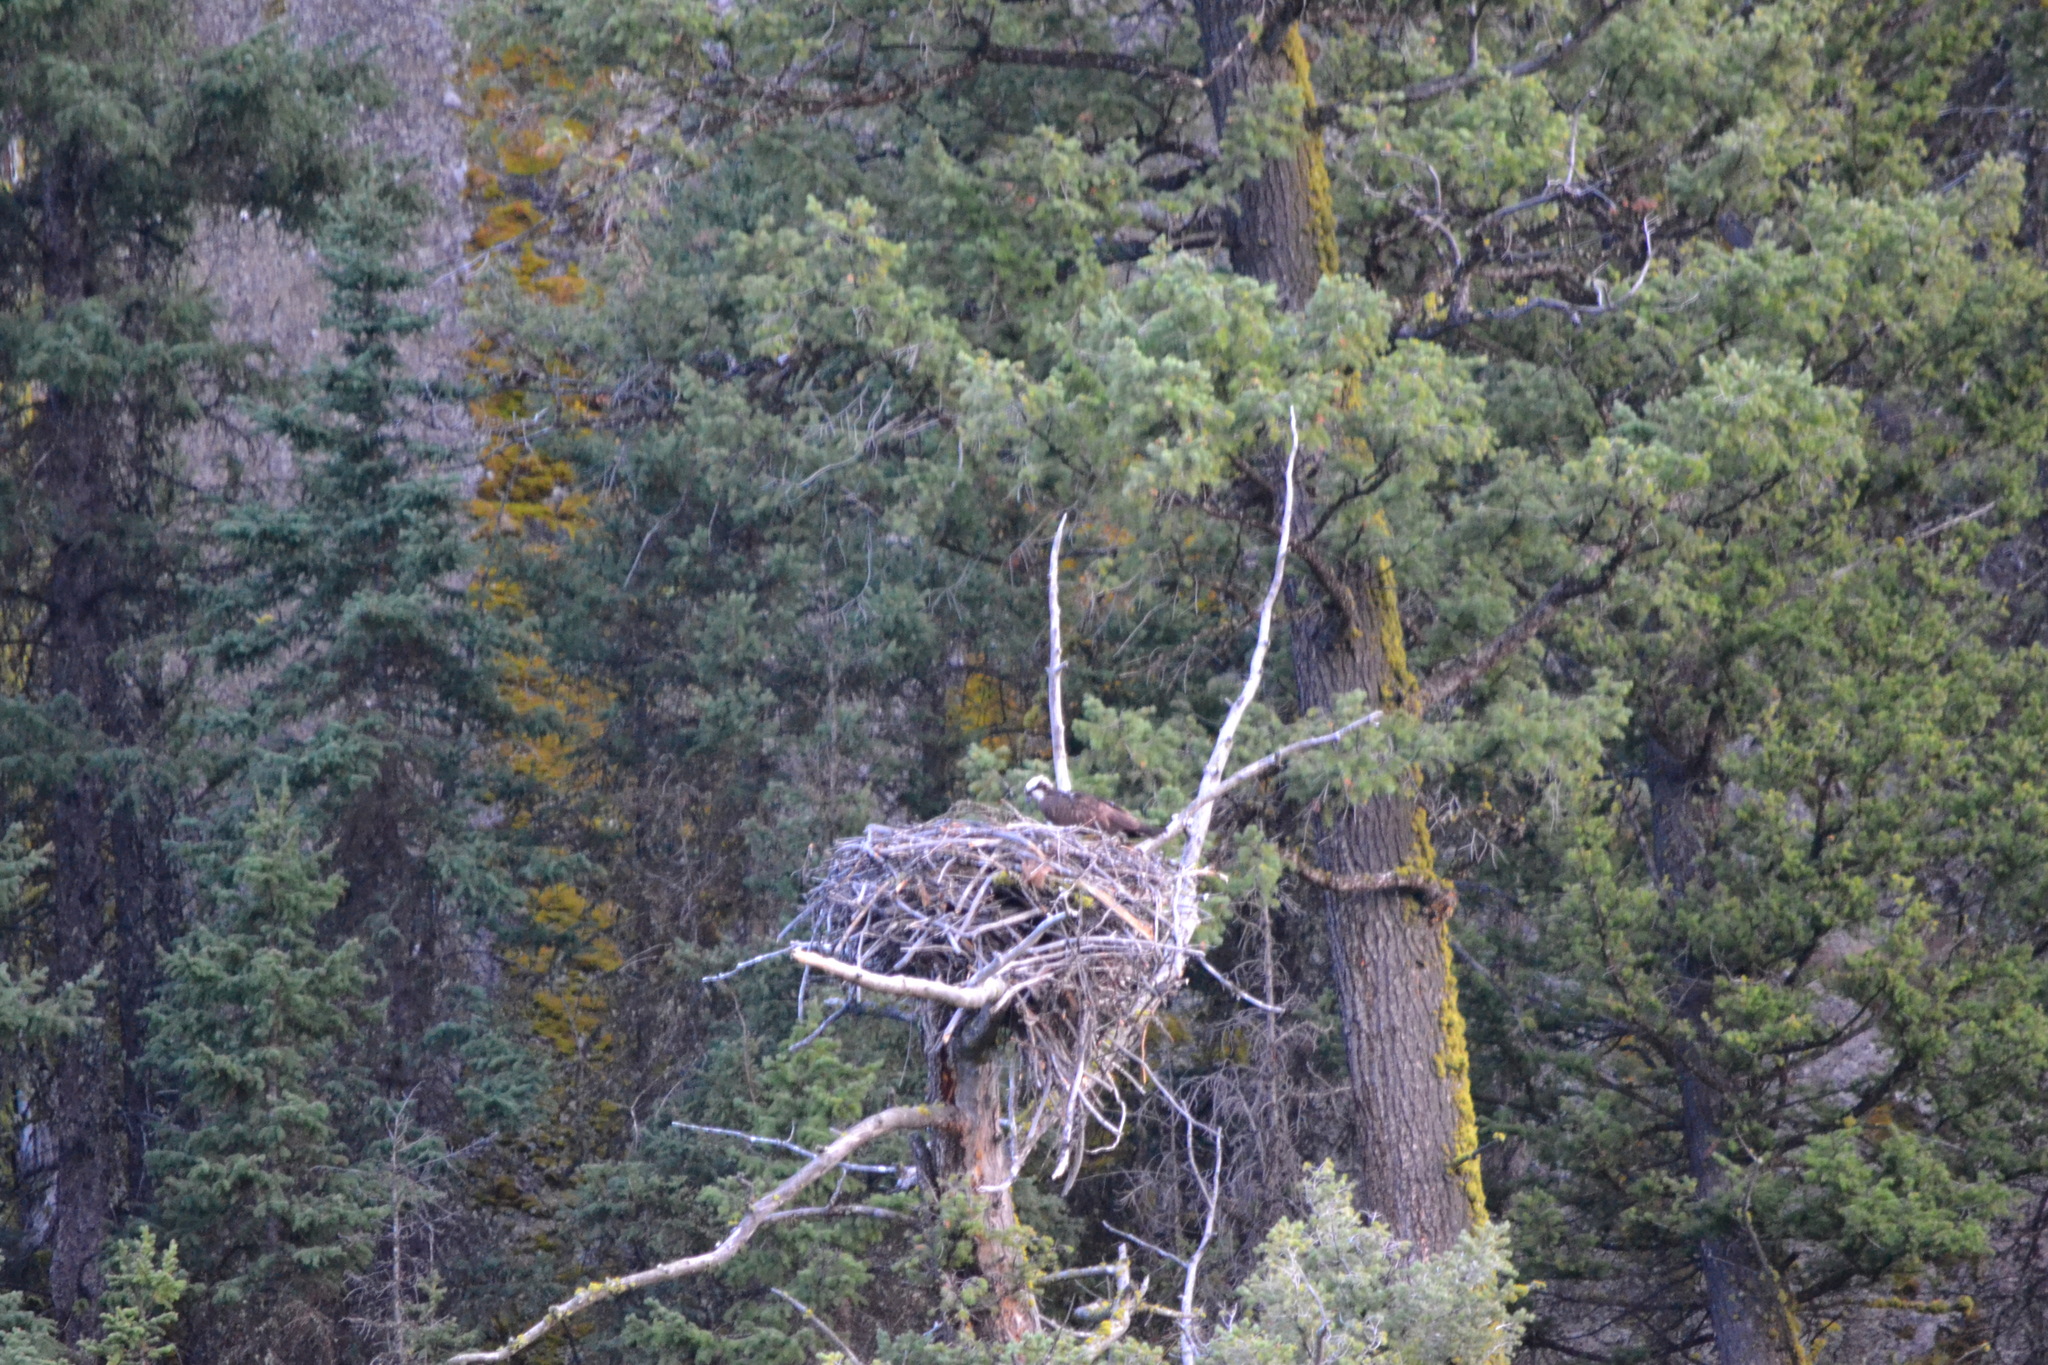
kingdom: Animalia
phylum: Chordata
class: Aves
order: Accipitriformes
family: Pandionidae
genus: Pandion
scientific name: Pandion haliaetus
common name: Osprey
